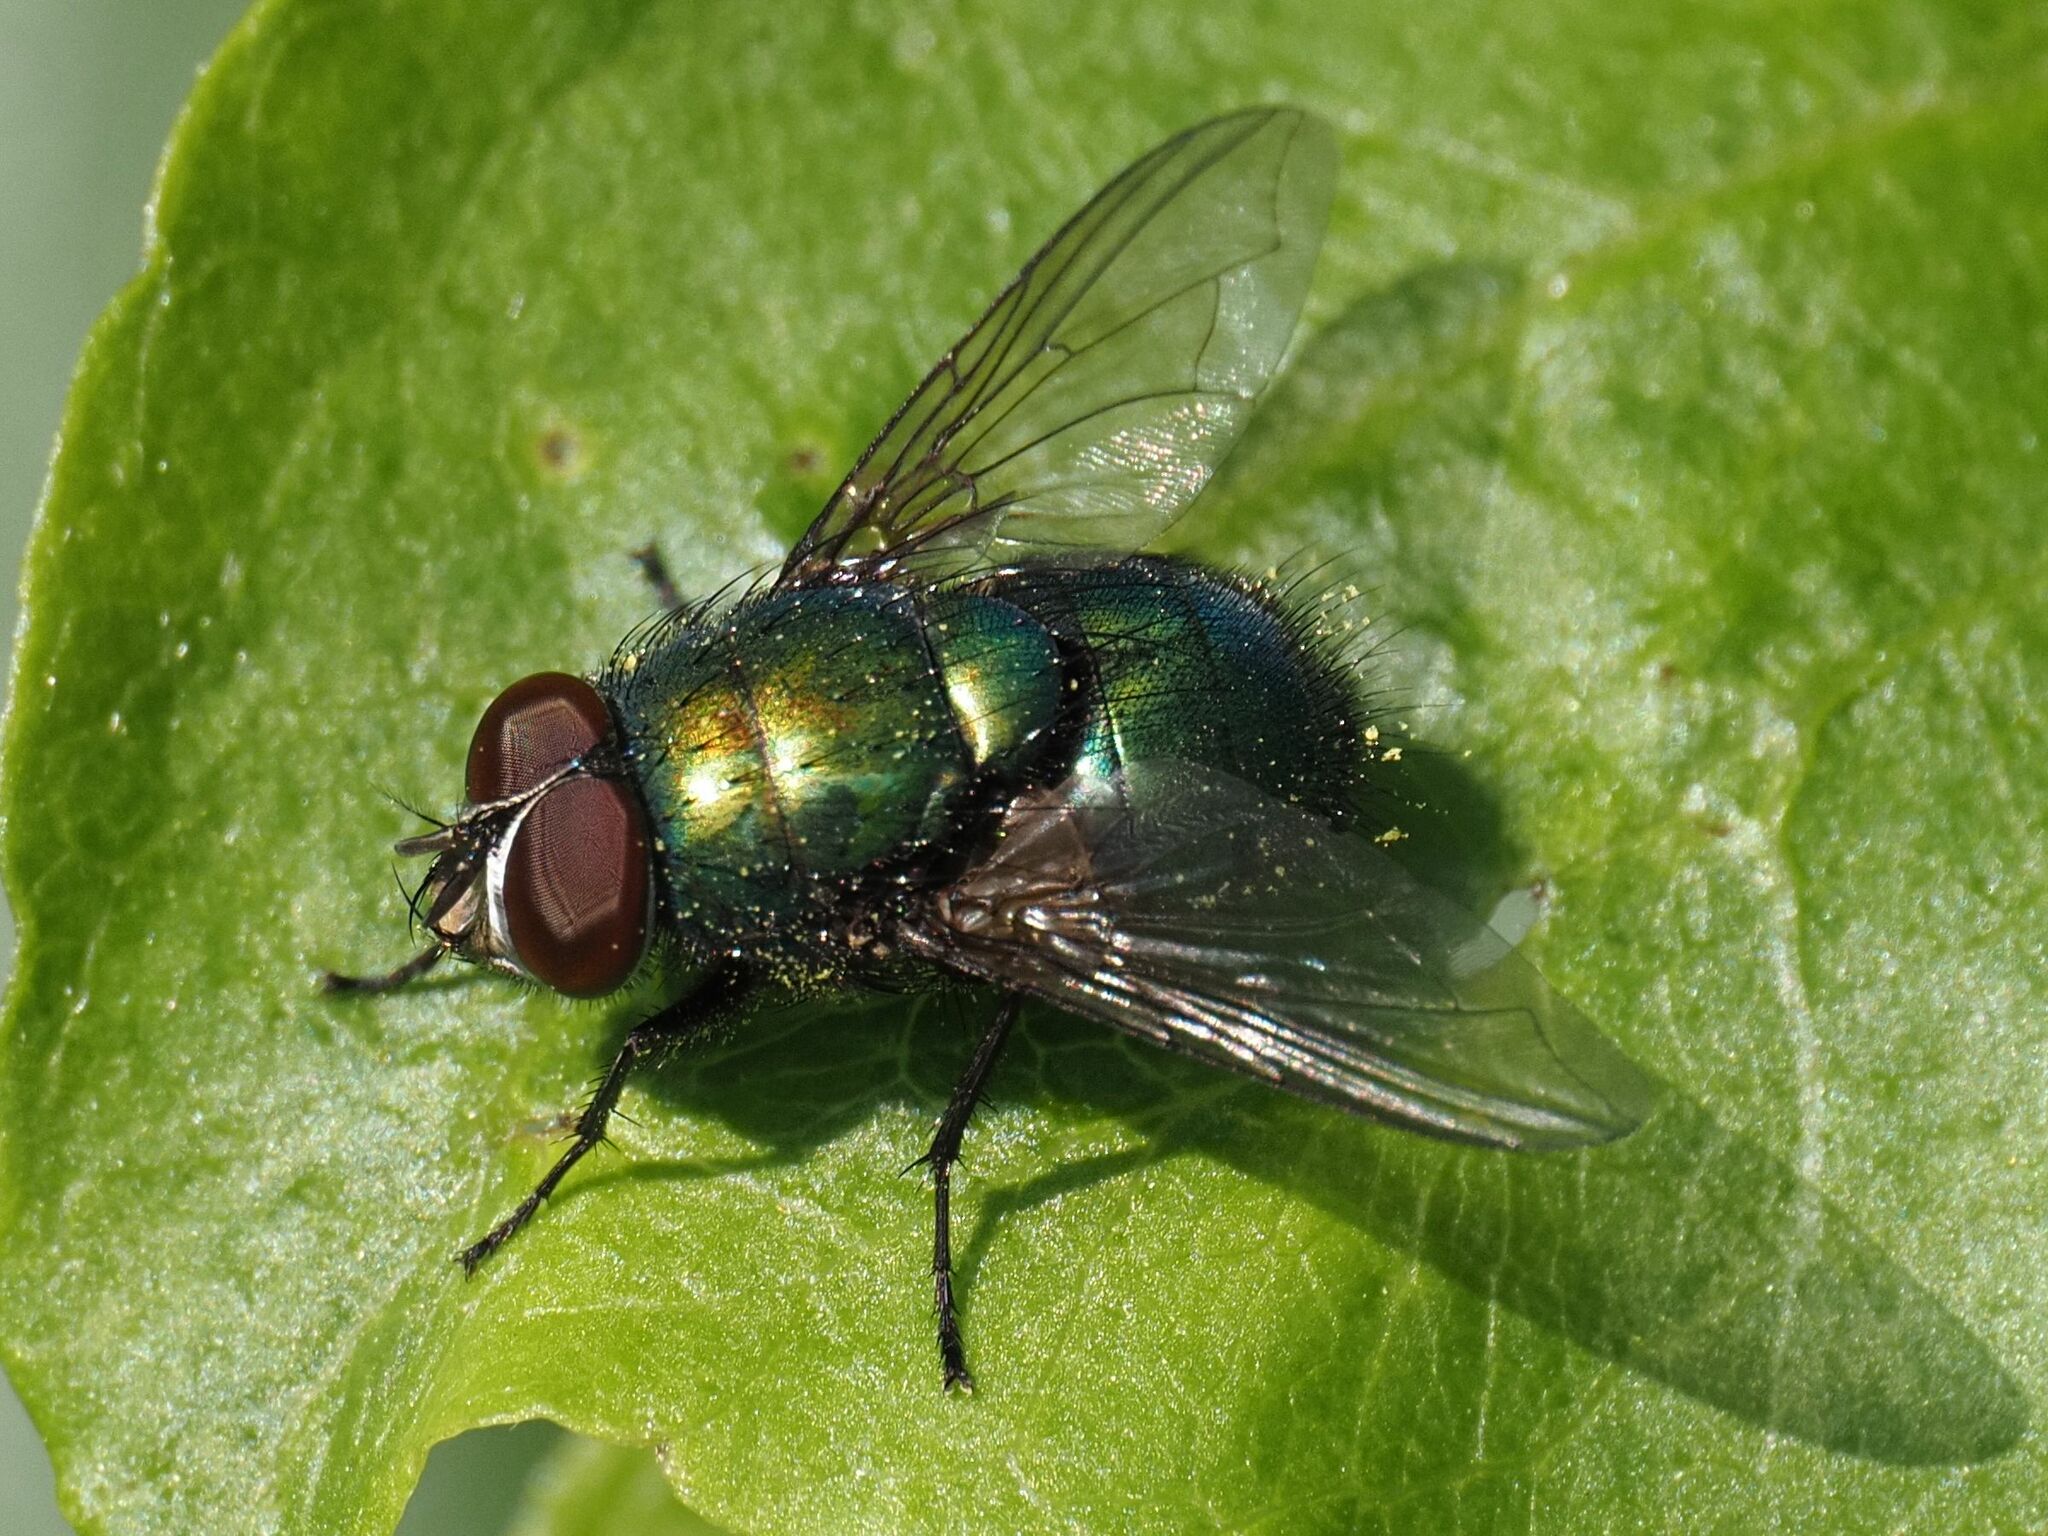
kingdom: Animalia
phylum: Arthropoda
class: Insecta
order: Diptera
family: Calliphoridae
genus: Lucilia
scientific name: Lucilia
